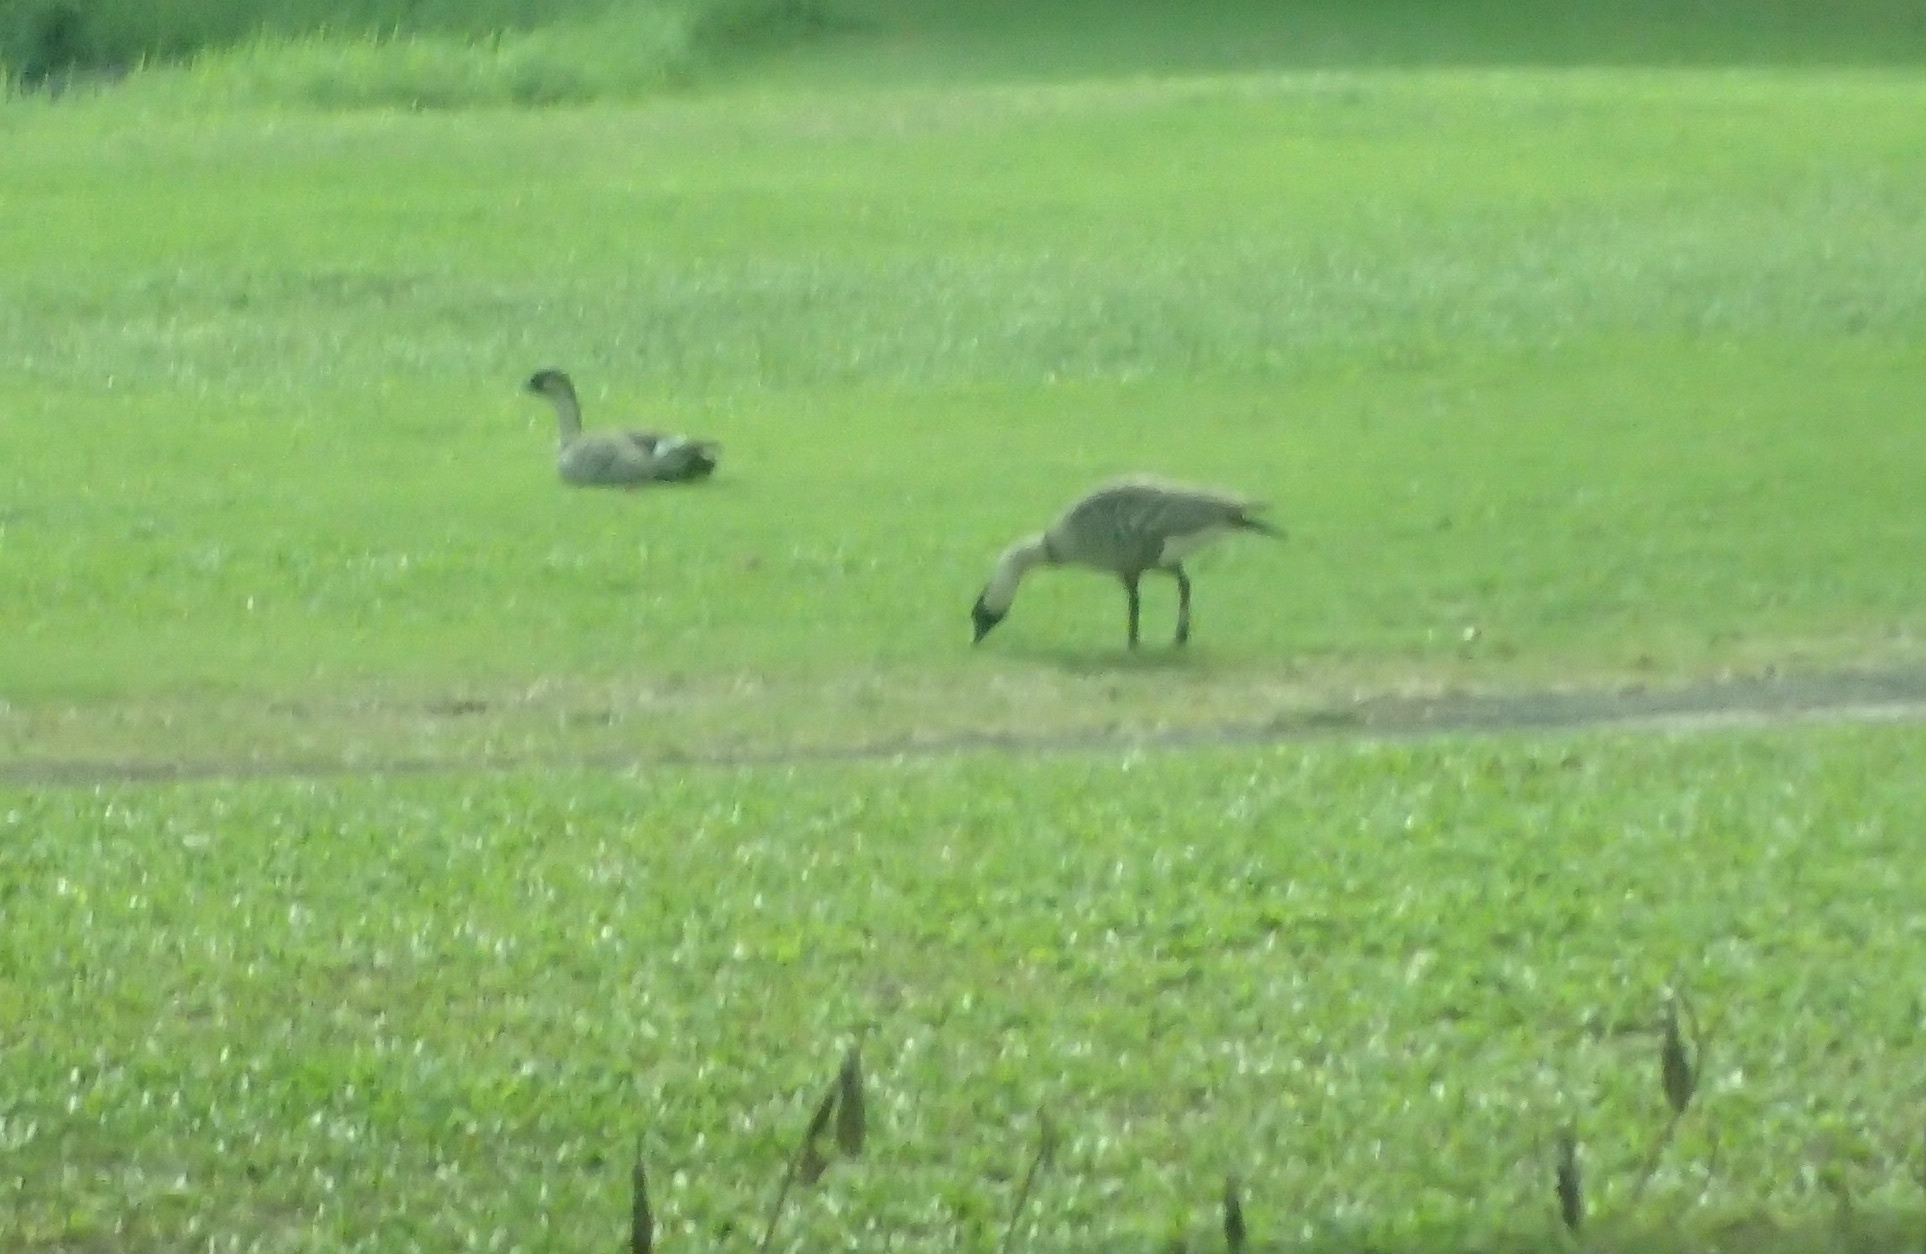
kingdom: Animalia
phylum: Chordata
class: Aves
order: Anseriformes
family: Anatidae
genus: Branta
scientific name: Branta sandvicensis
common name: Nene
